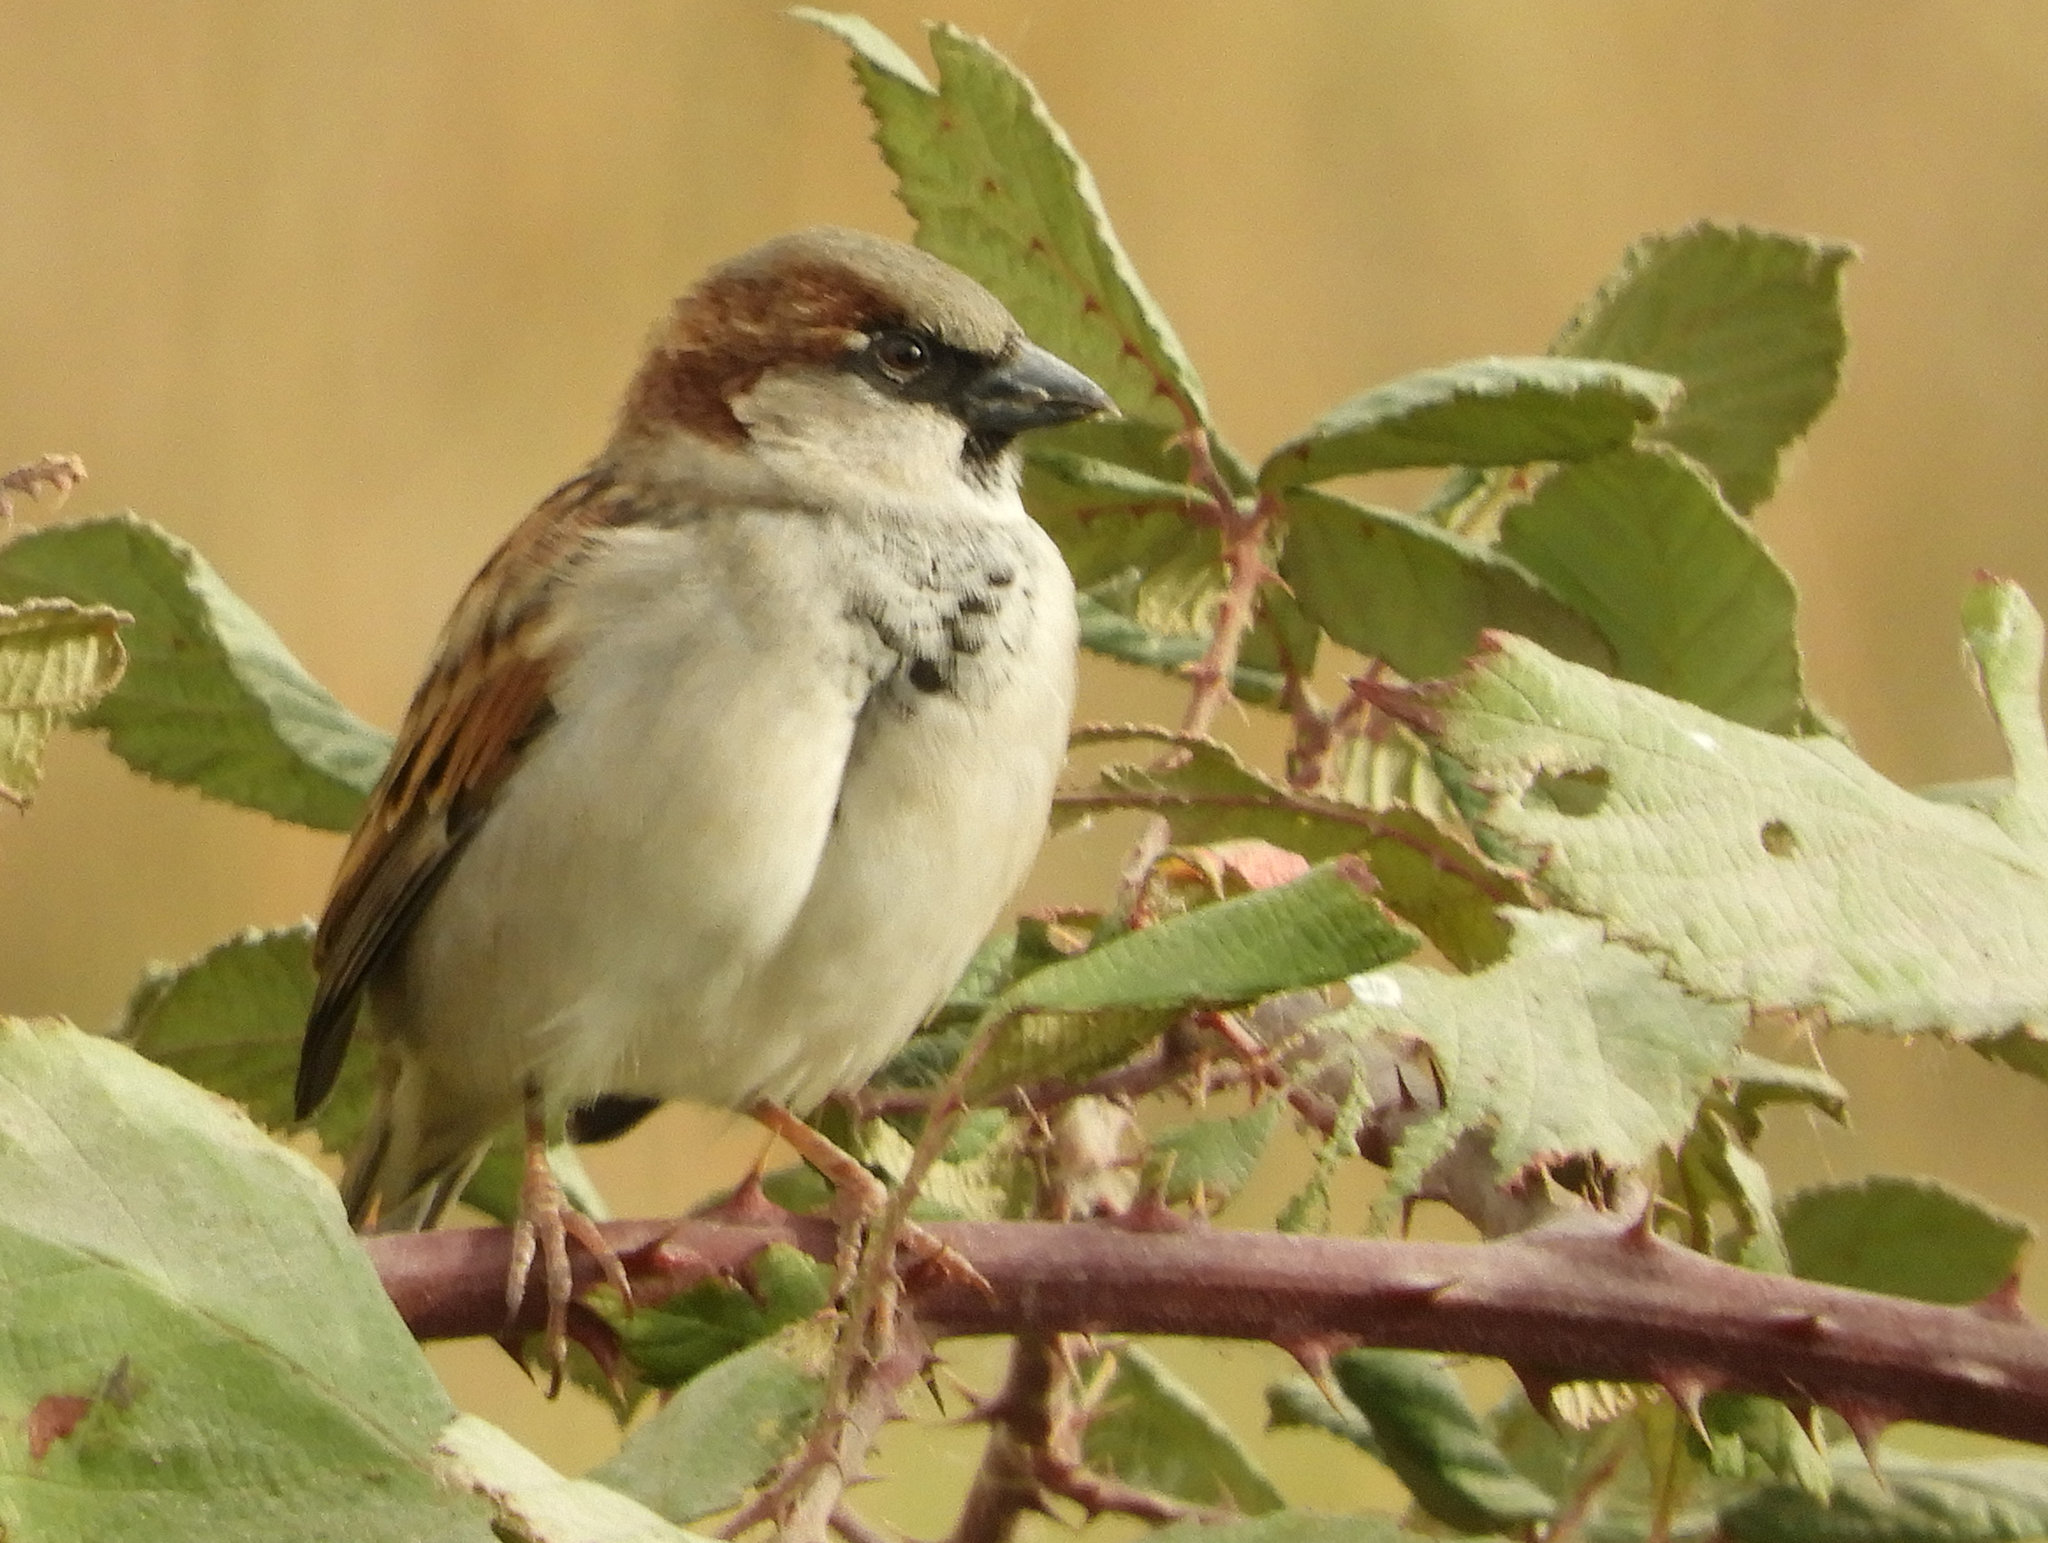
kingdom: Animalia
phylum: Chordata
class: Aves
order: Passeriformes
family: Passeridae
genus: Passer
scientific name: Passer domesticus
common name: House sparrow
